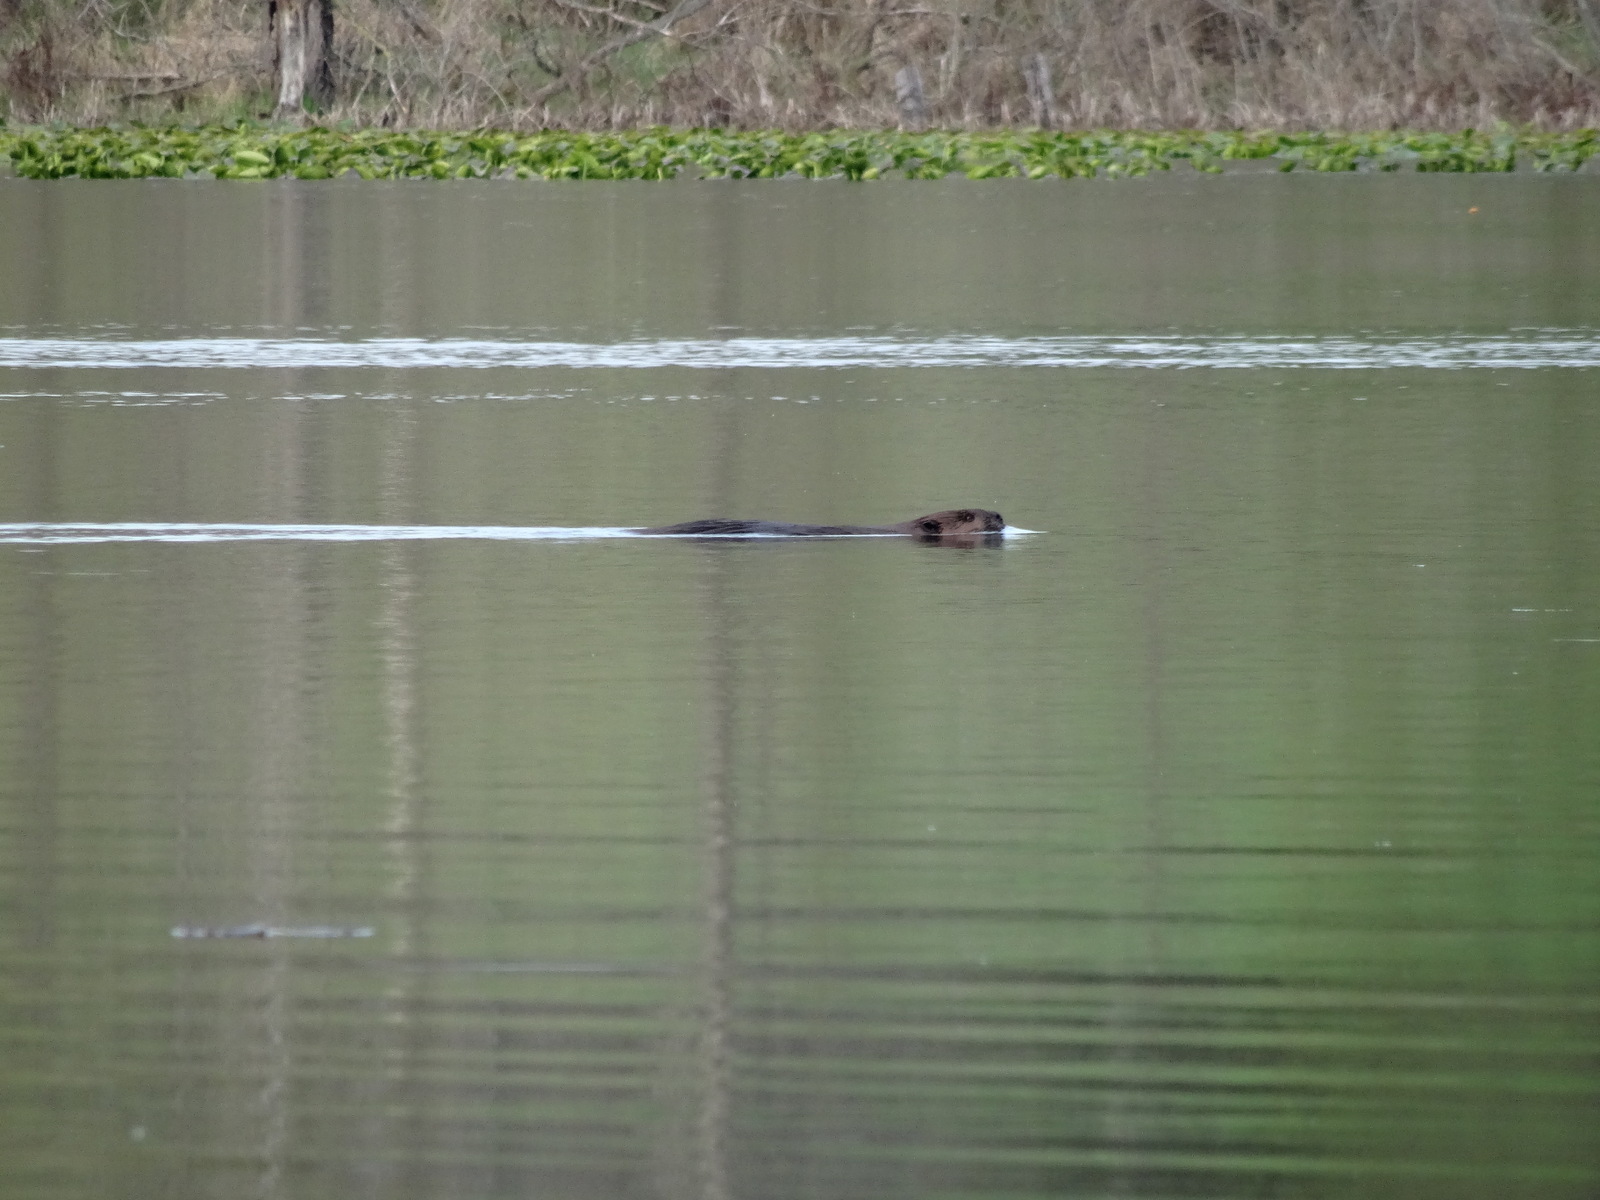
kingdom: Animalia
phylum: Chordata
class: Mammalia
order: Rodentia
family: Castoridae
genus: Castor
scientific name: Castor canadensis
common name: American beaver
